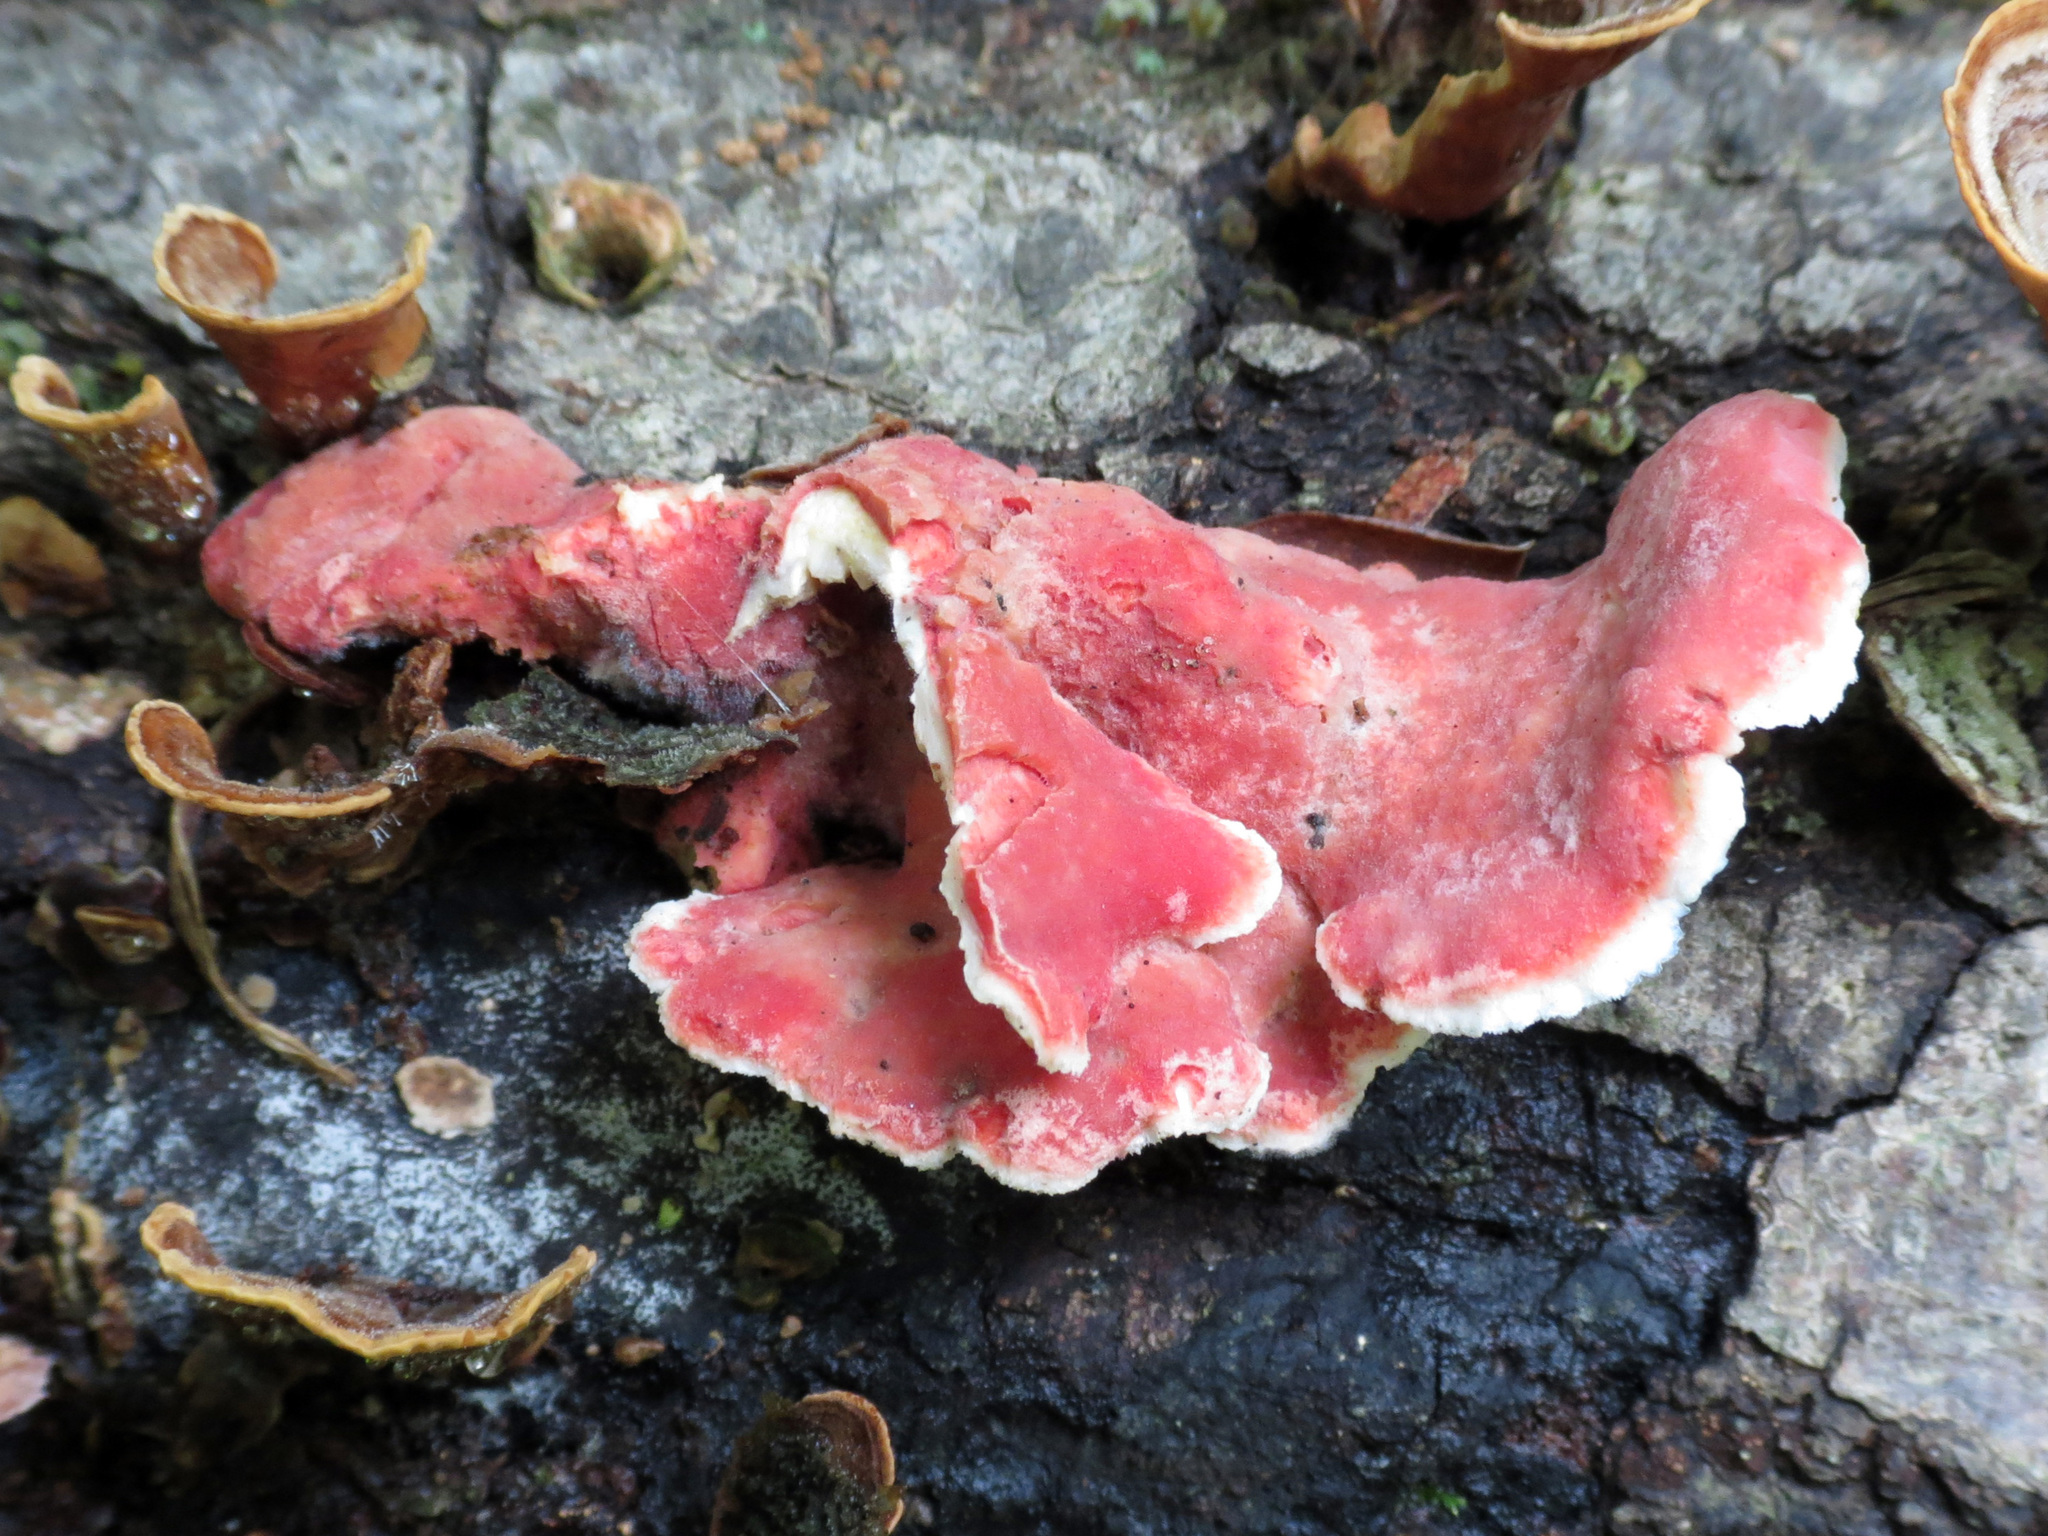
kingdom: Fungi
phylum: Basidiomycota
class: Agaricomycetes
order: Polyporales
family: Irpicaceae
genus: Byssomerulius
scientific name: Byssomerulius incarnatus
